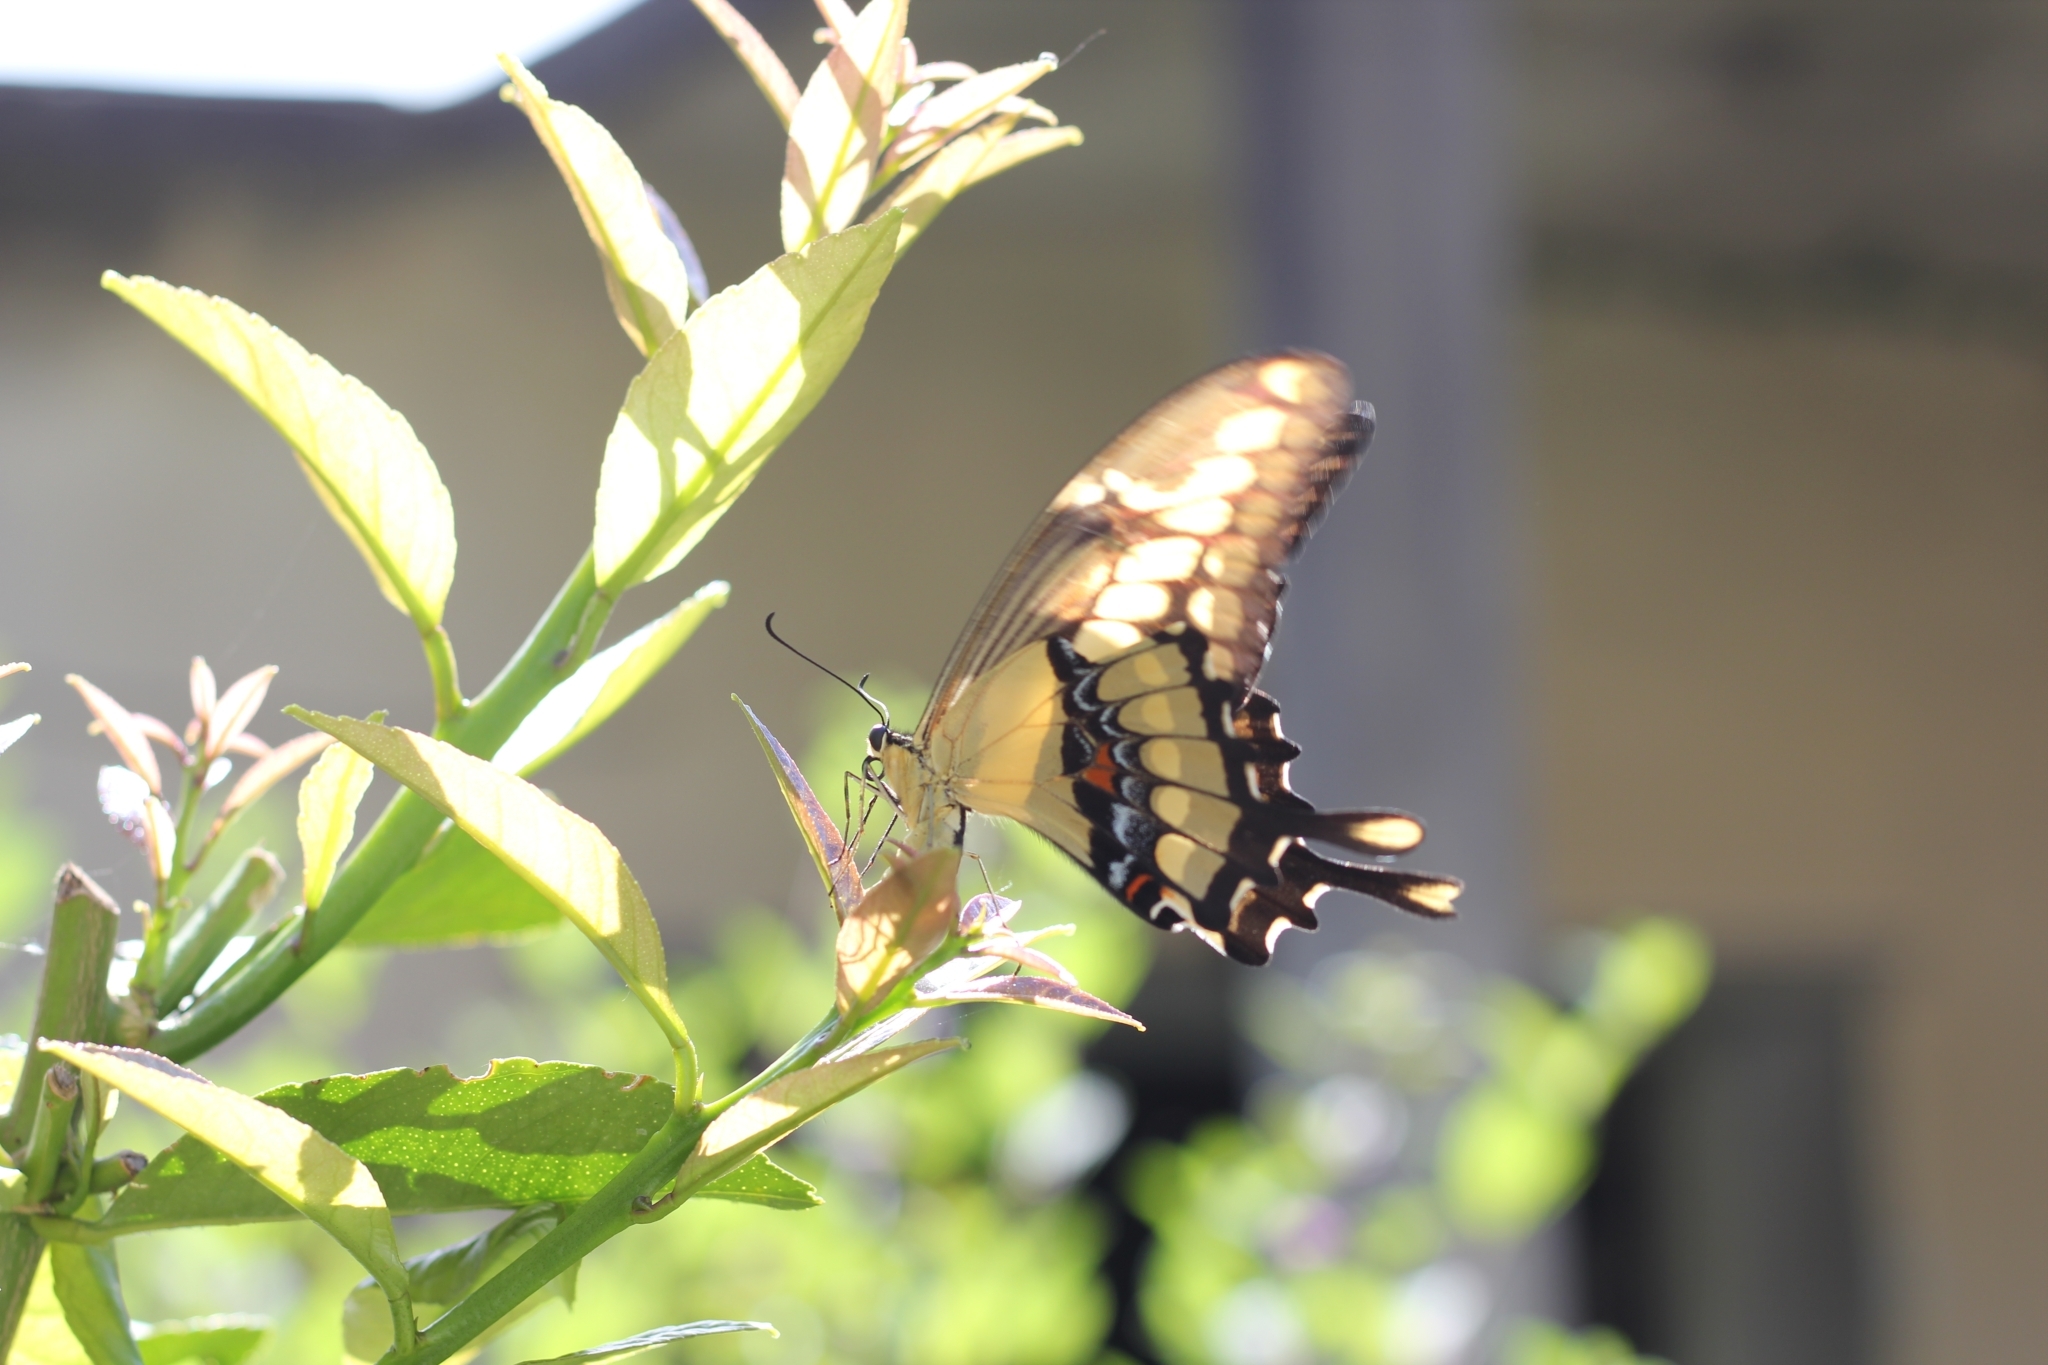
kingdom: Animalia
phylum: Arthropoda
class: Insecta
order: Lepidoptera
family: Papilionidae
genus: Papilio
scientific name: Papilio thoas
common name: King swallowtail
